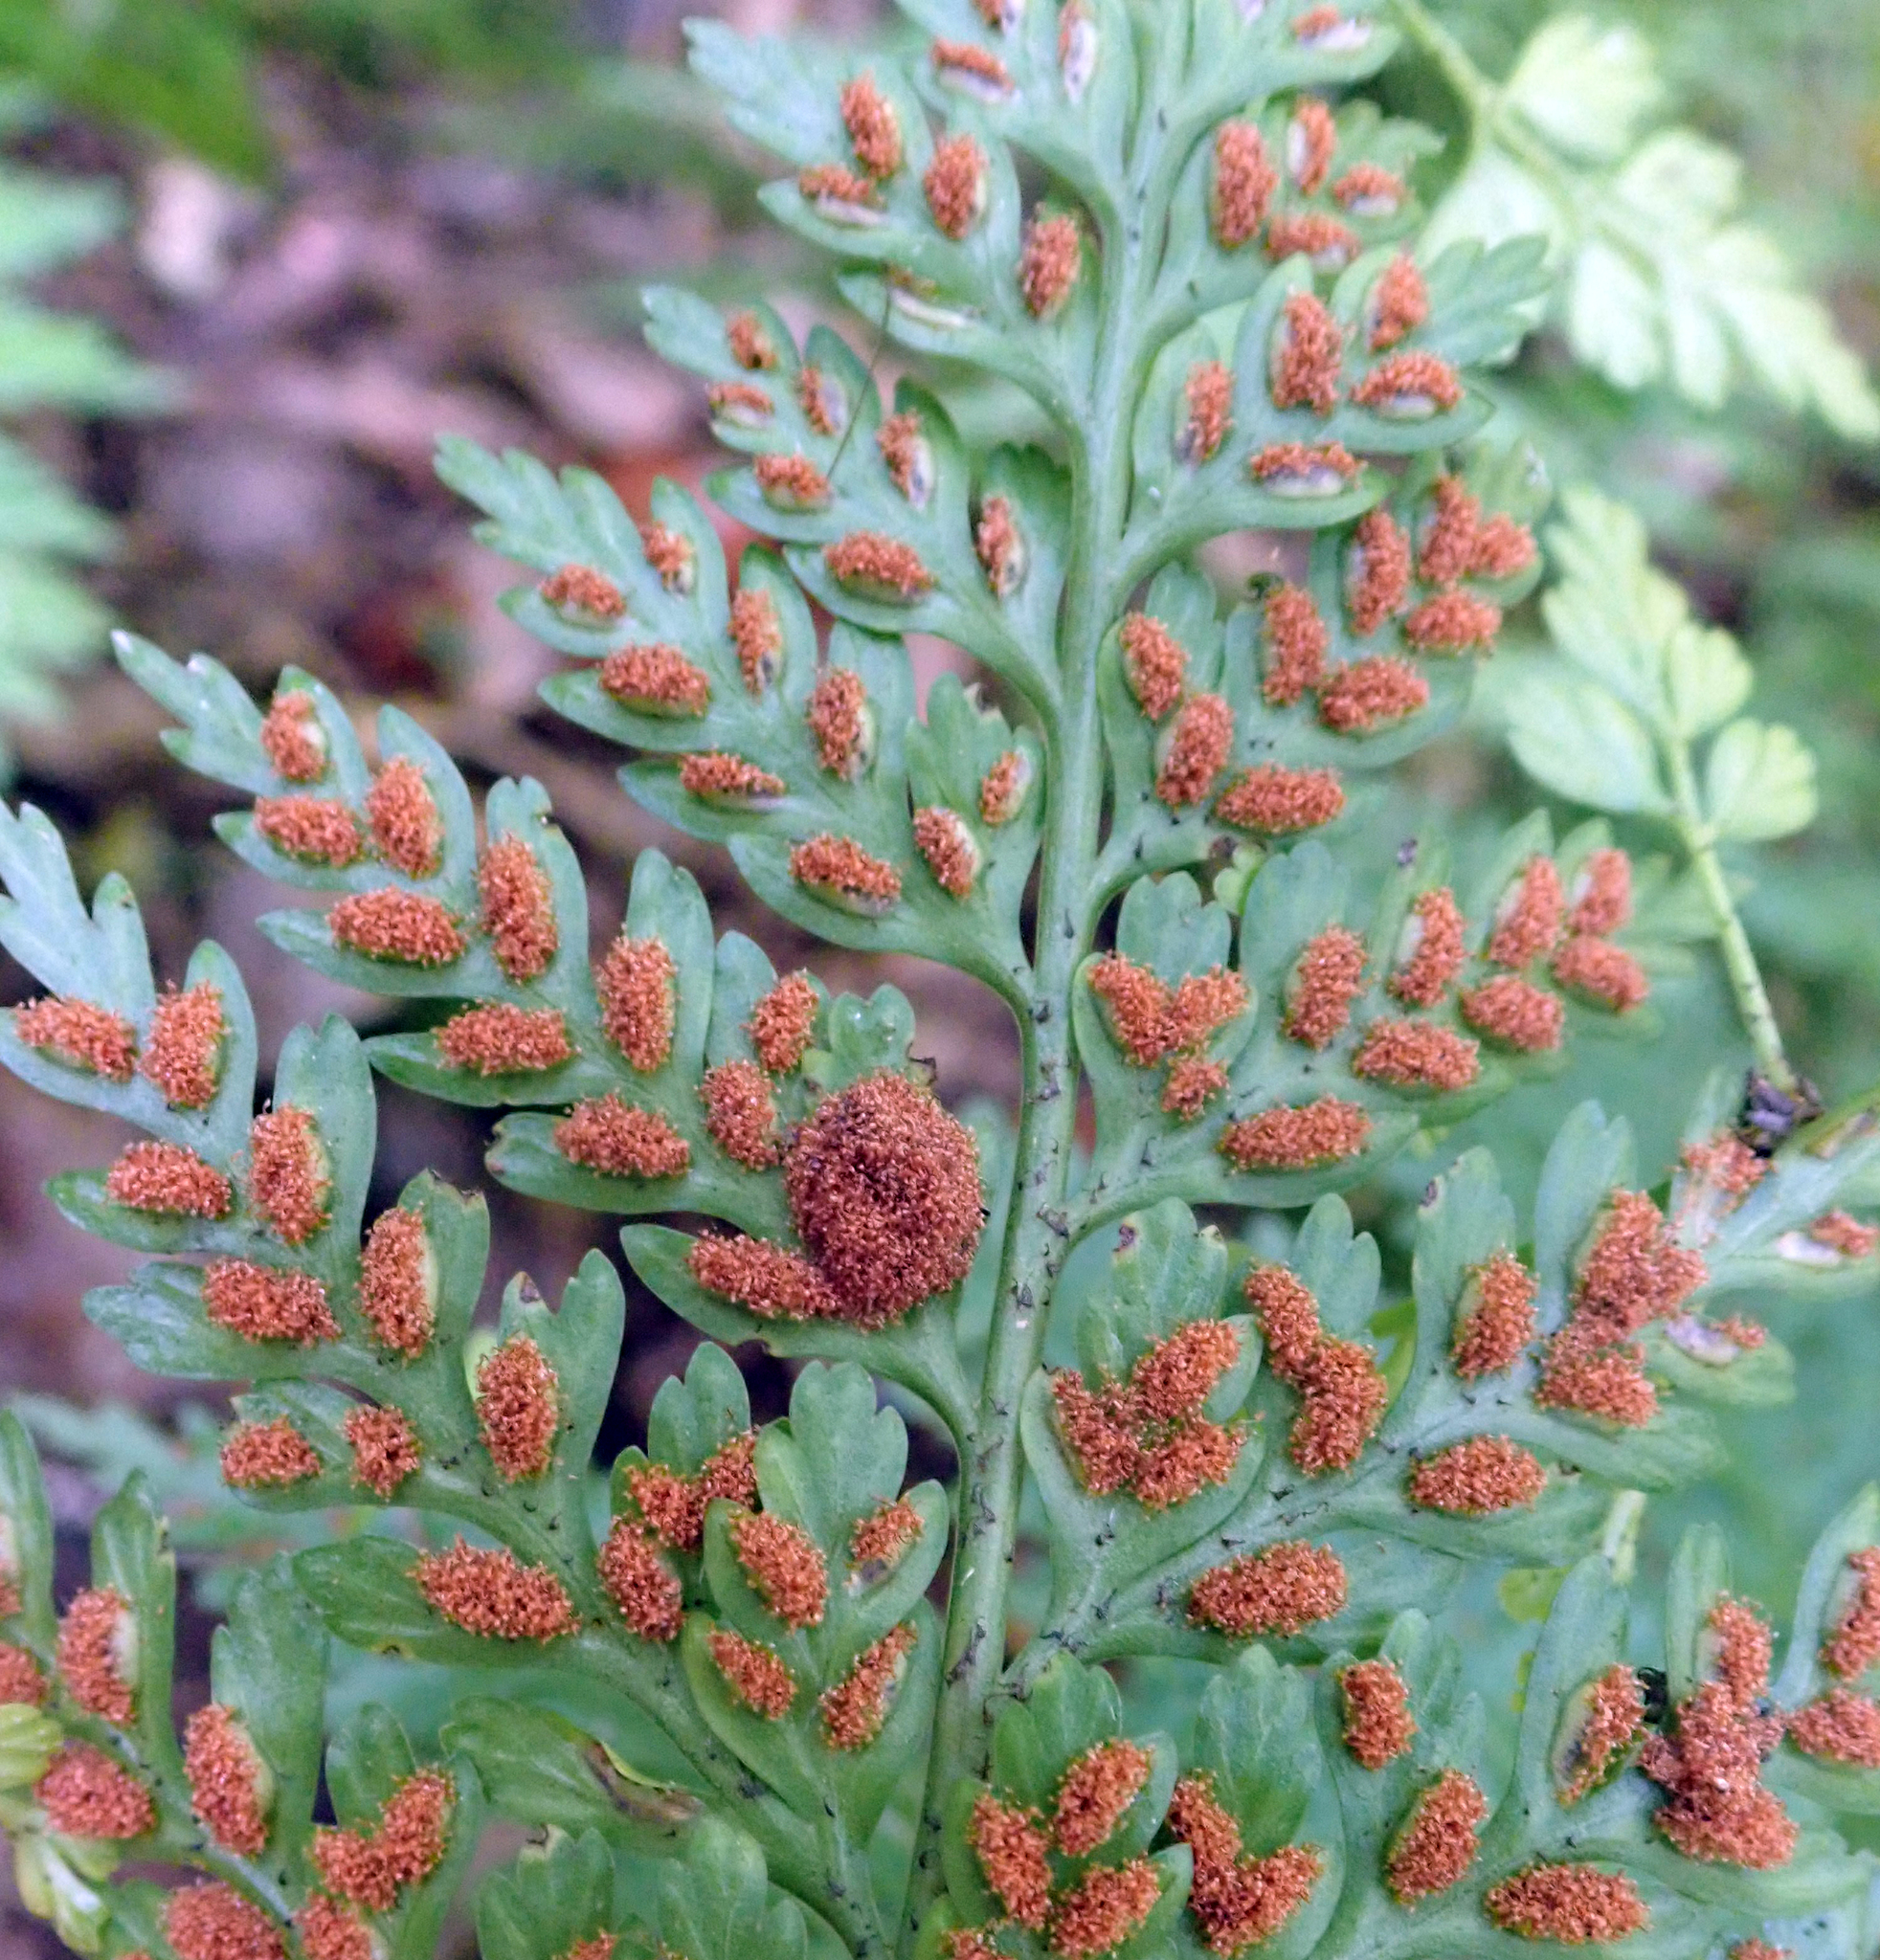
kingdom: Plantae
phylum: Tracheophyta
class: Polypodiopsida
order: Polypodiales
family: Aspleniaceae
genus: Asplenium
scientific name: Asplenium bulbiferum
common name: Mother fern
